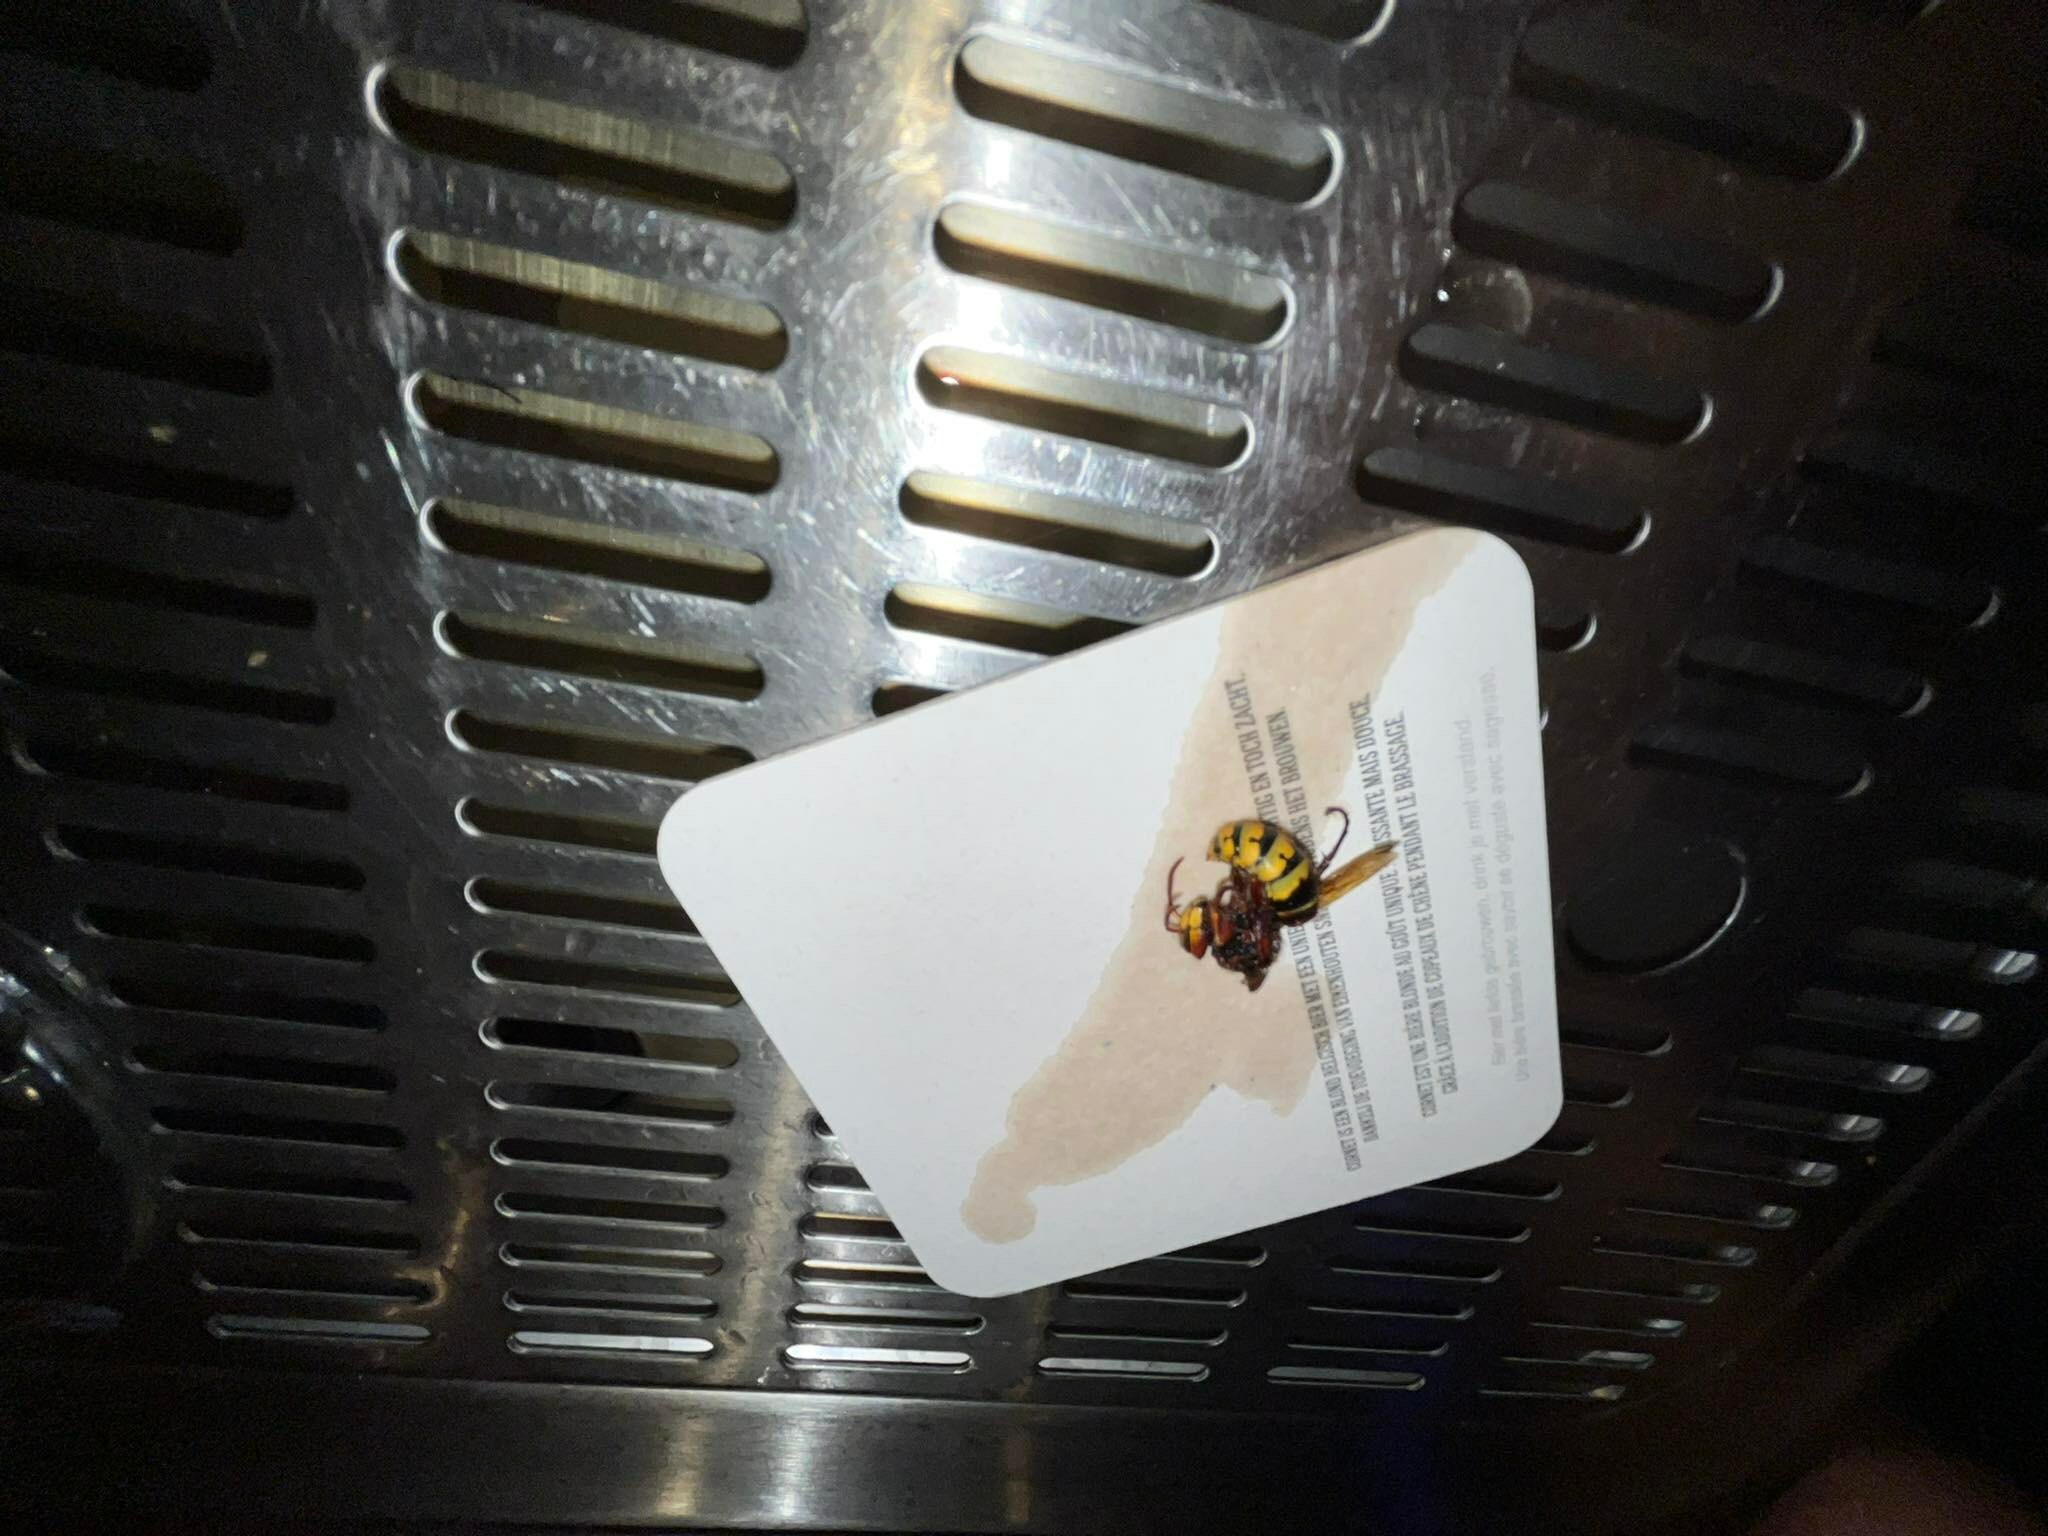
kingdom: Animalia
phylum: Arthropoda
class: Insecta
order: Hymenoptera
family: Vespidae
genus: Vespa
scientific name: Vespa crabro
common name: Hornet
